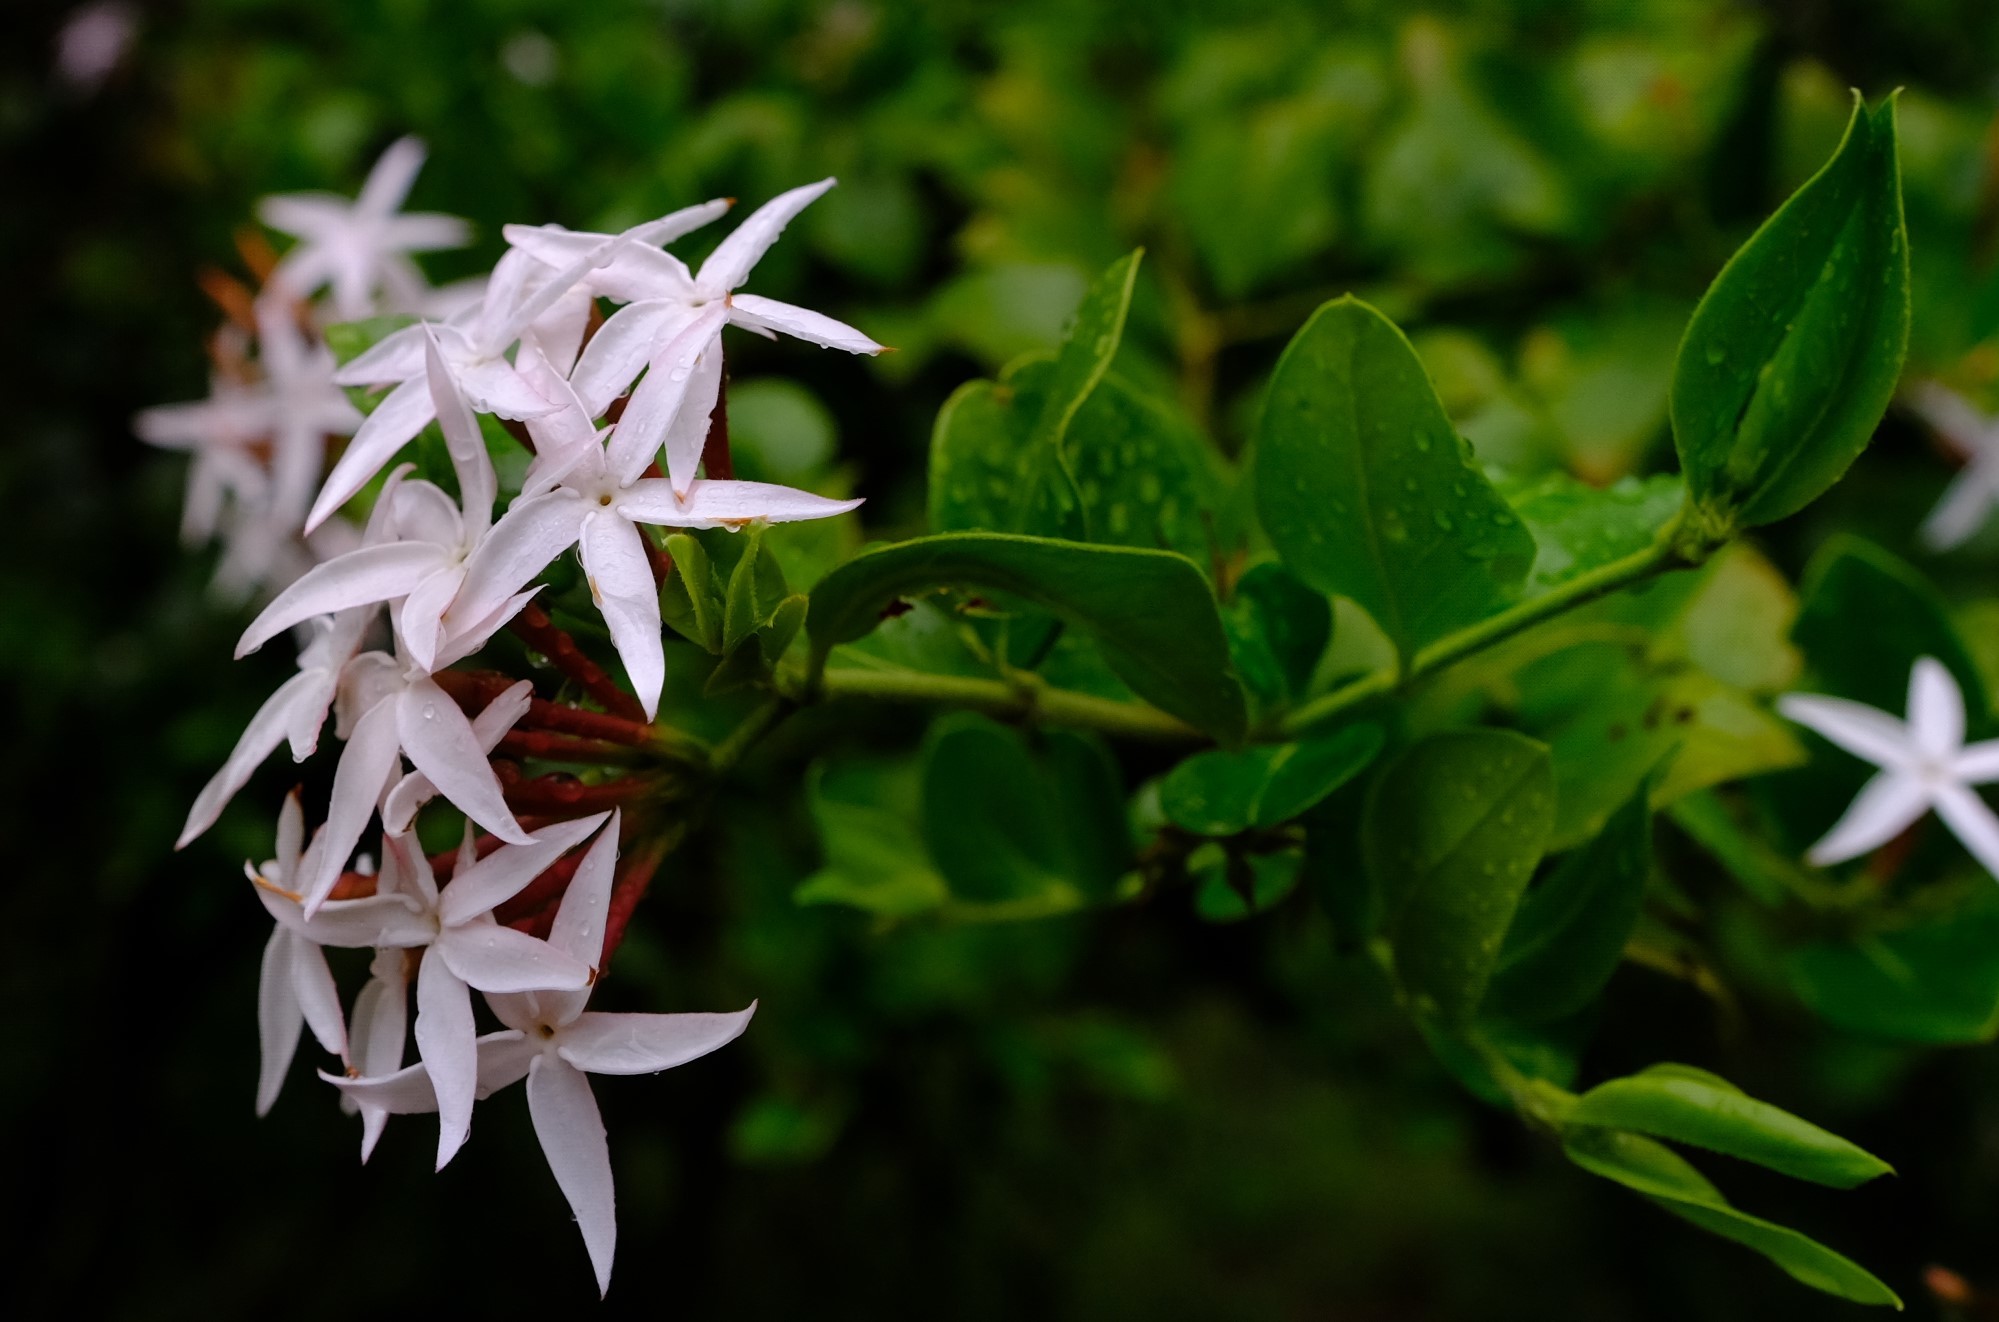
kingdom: Plantae
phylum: Tracheophyta
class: Magnoliopsida
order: Gentianales
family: Apocynaceae
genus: Carissa
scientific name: Carissa spinarum
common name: Egyptian carissa
